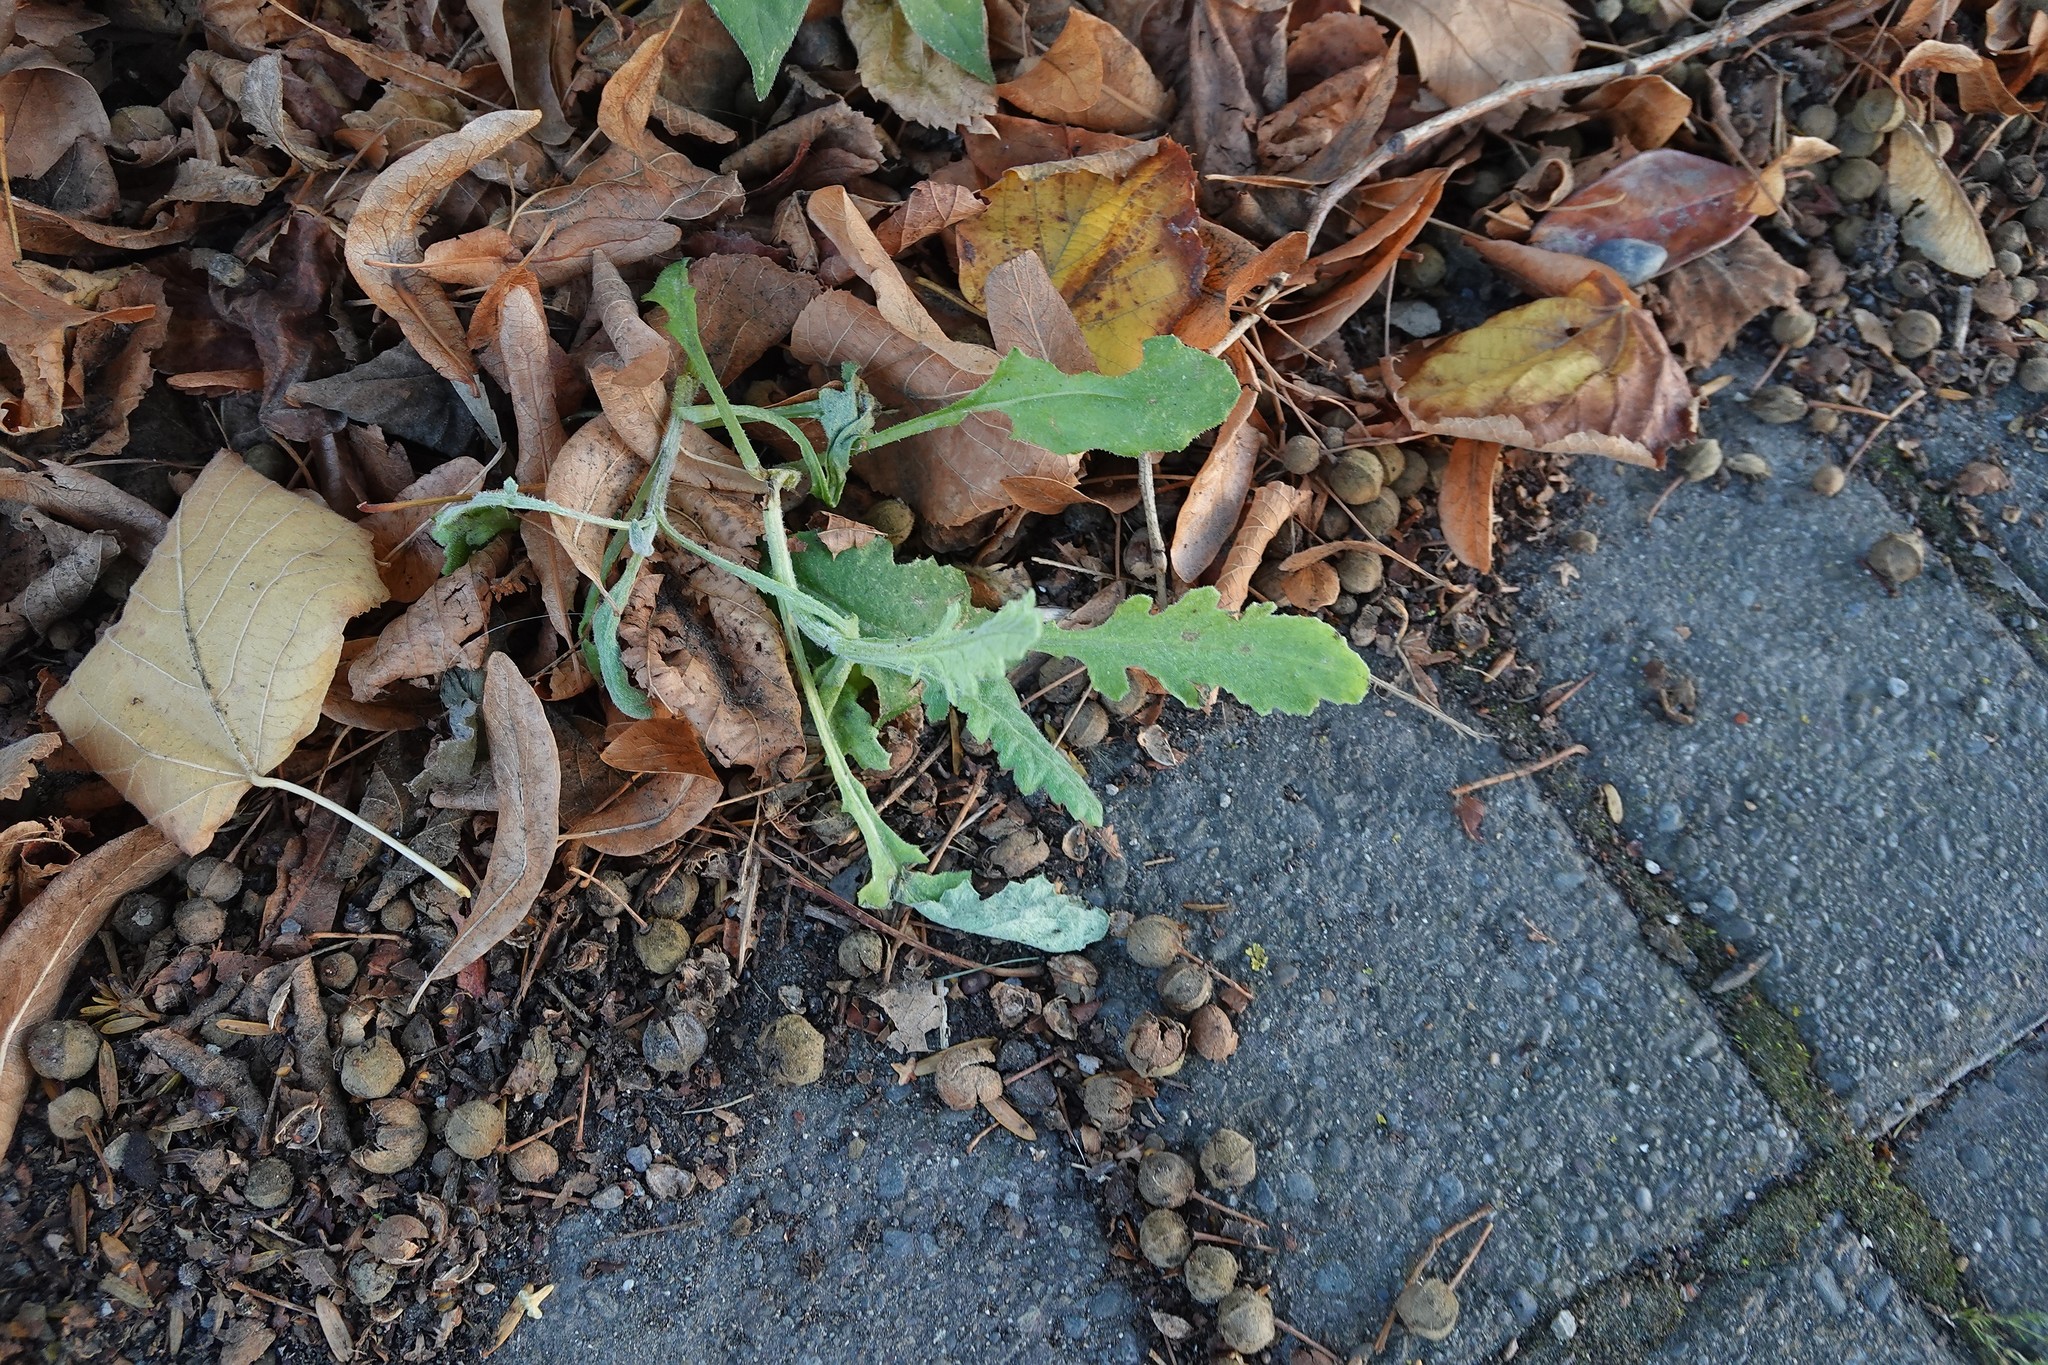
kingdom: Plantae
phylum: Tracheophyta
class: Magnoliopsida
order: Asterales
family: Asteraceae
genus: Senecio
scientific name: Senecio glomeratus
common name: Cutleaf burnweed
